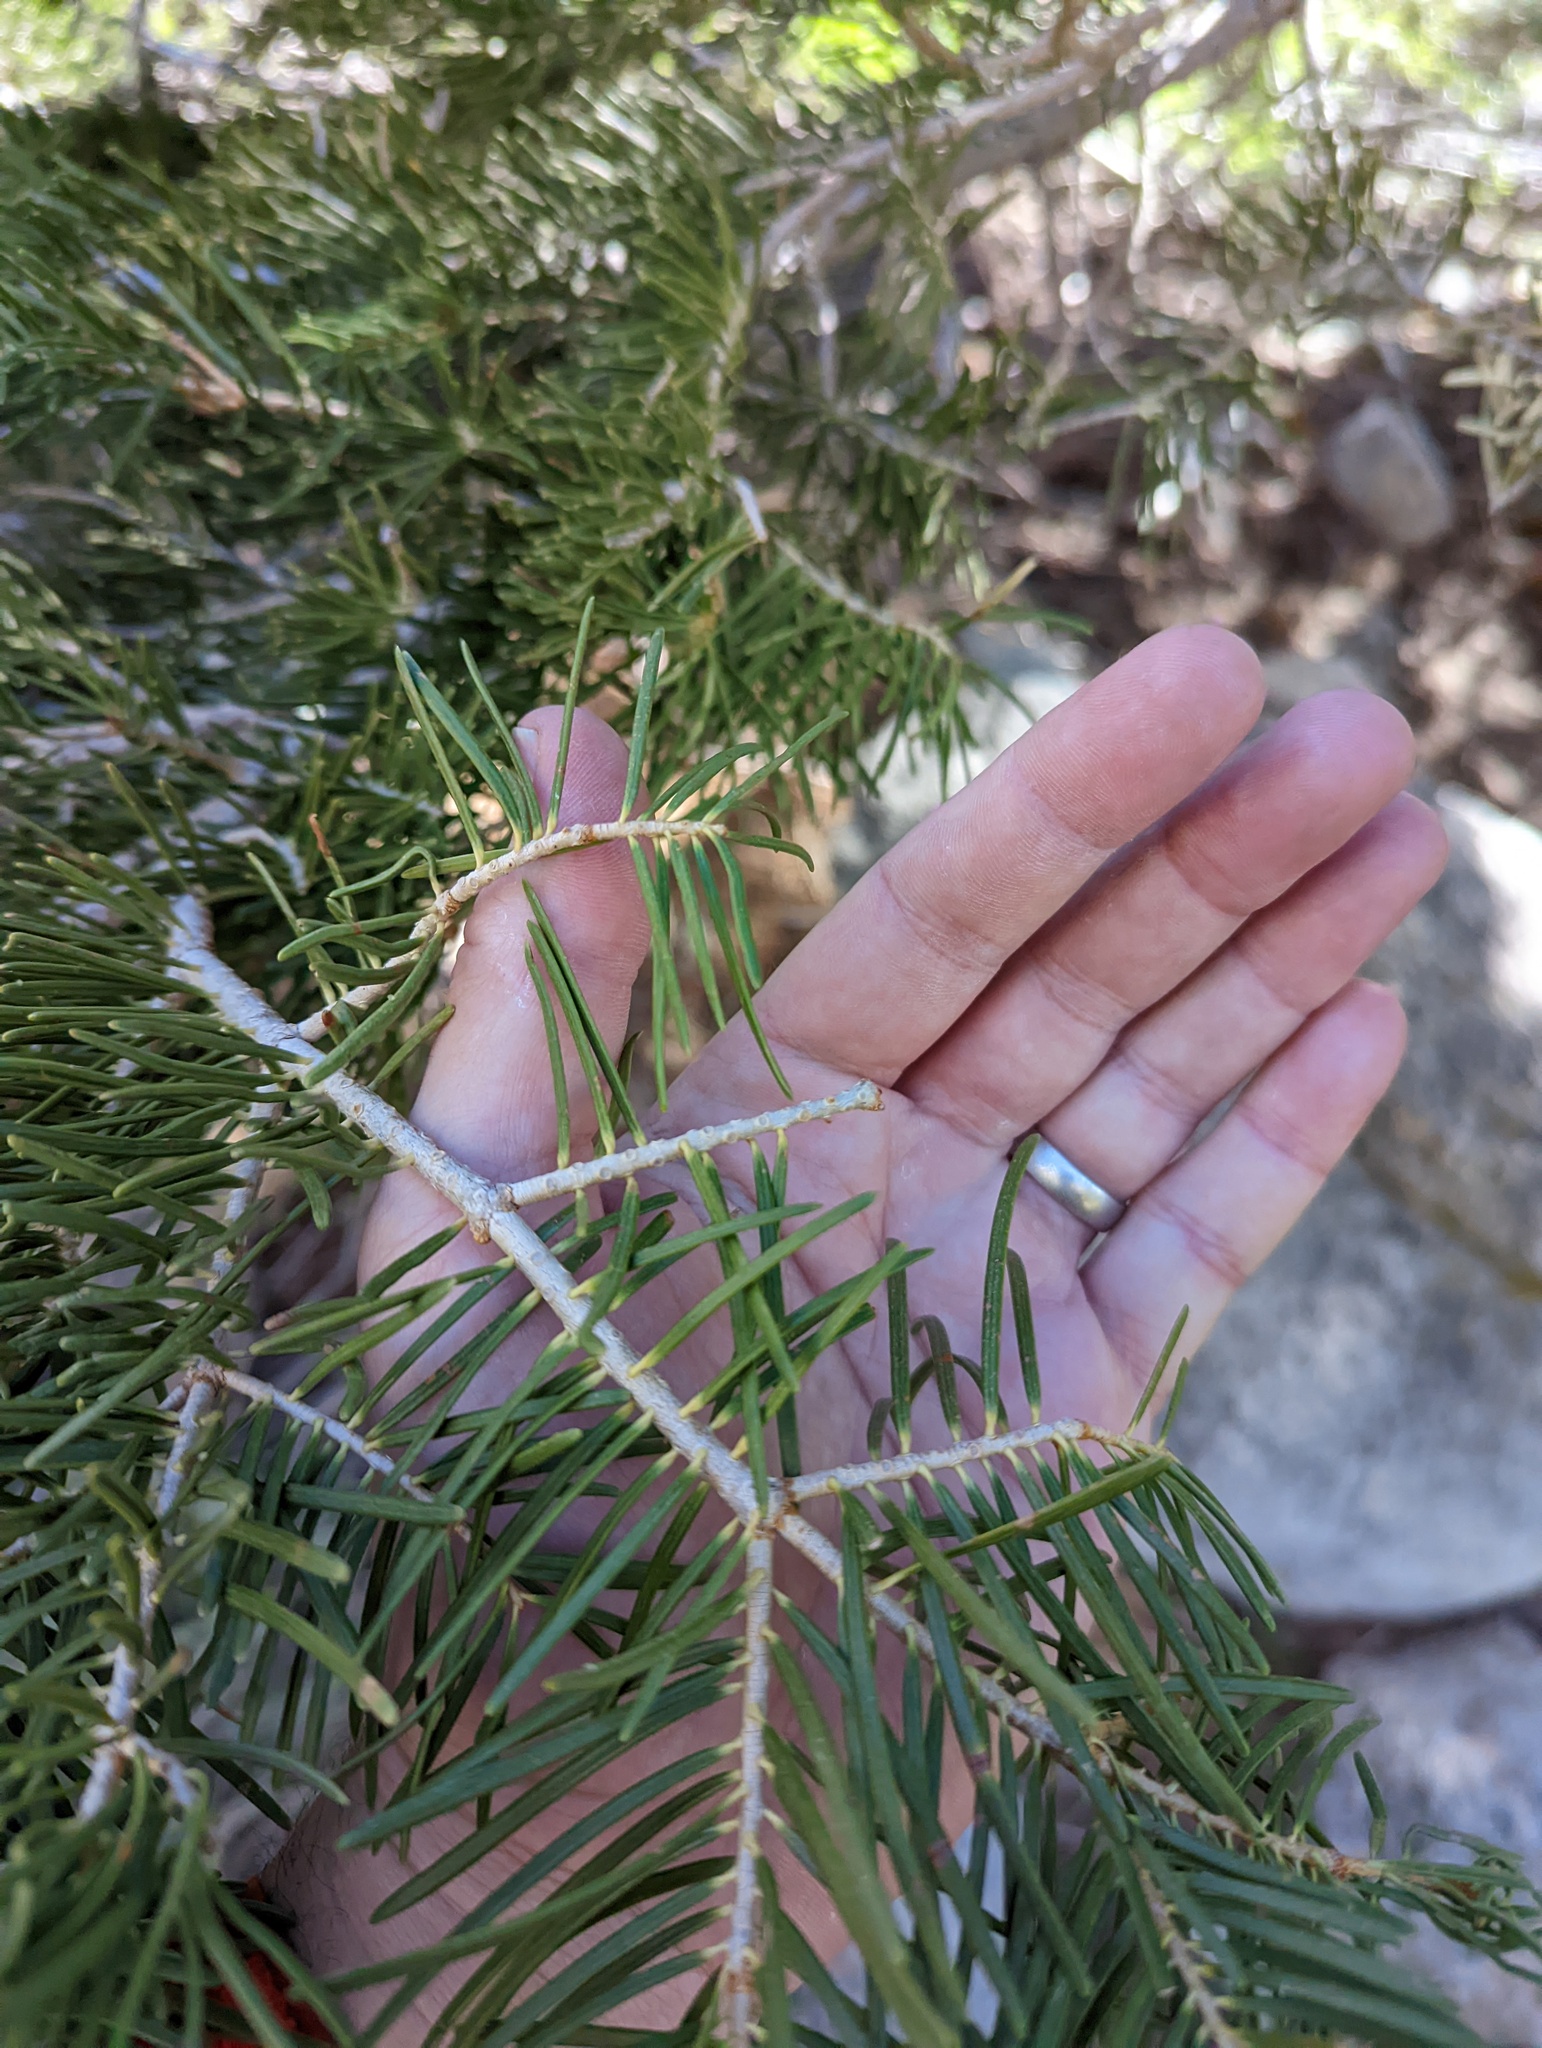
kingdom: Plantae
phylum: Tracheophyta
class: Pinopsida
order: Pinales
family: Pinaceae
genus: Abies
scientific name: Abies concolor
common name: Colorado fir
